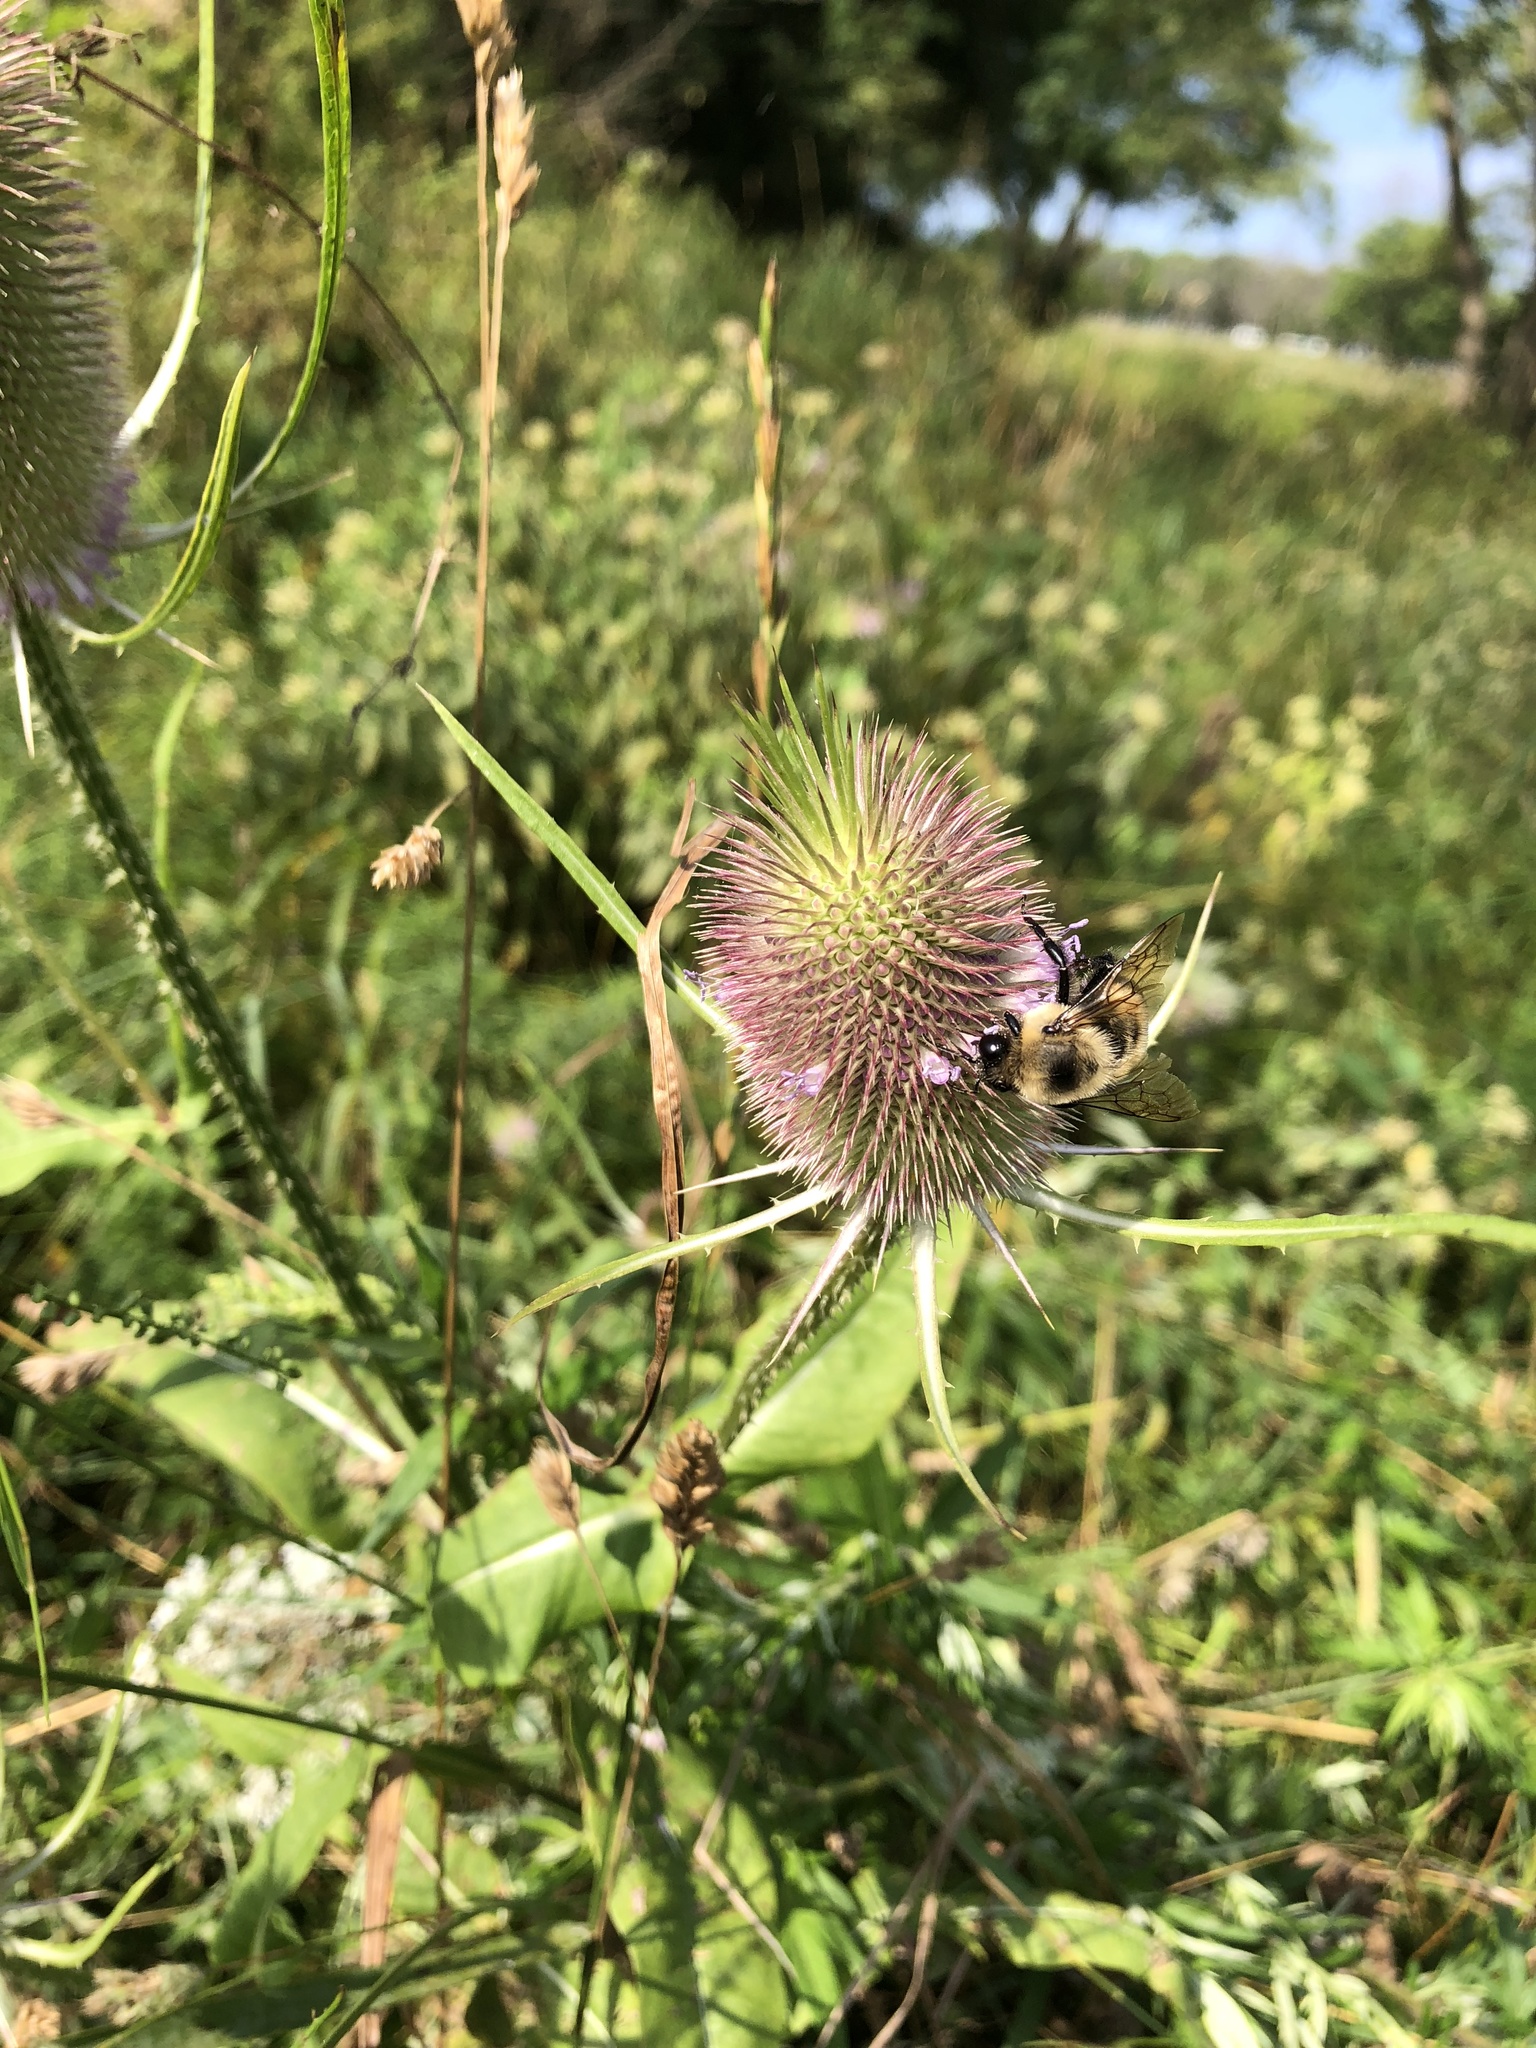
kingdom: Animalia
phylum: Arthropoda
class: Insecta
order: Hymenoptera
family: Apidae
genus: Bombus
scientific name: Bombus griseocollis
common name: Brown-belted bumble bee
